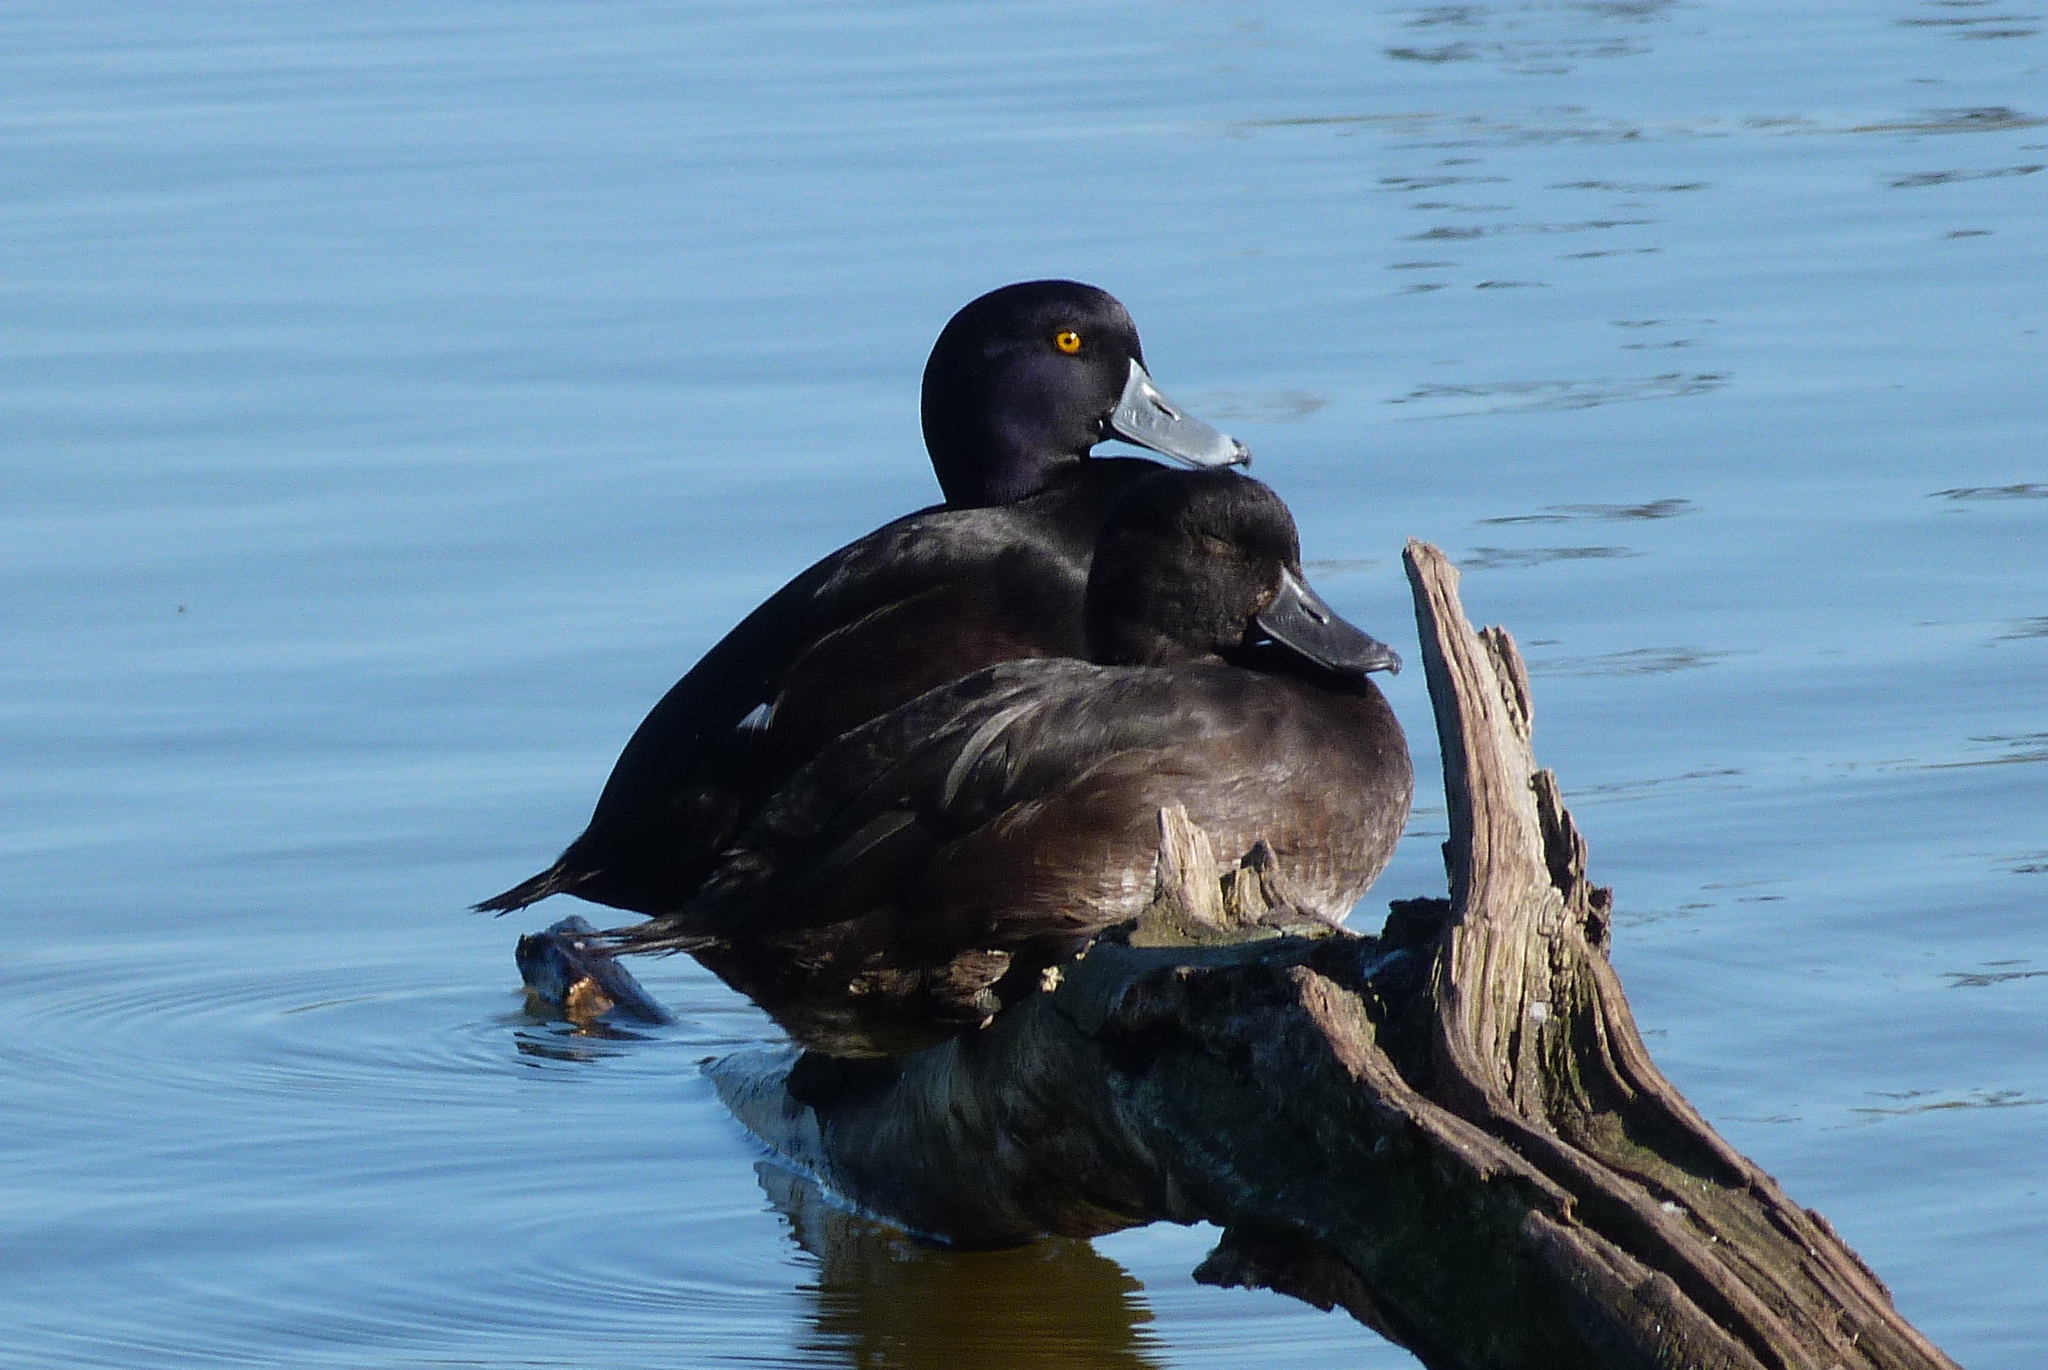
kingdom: Animalia
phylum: Chordata
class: Aves
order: Anseriformes
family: Anatidae
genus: Aythya
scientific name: Aythya novaeseelandiae
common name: New zealand scaup
